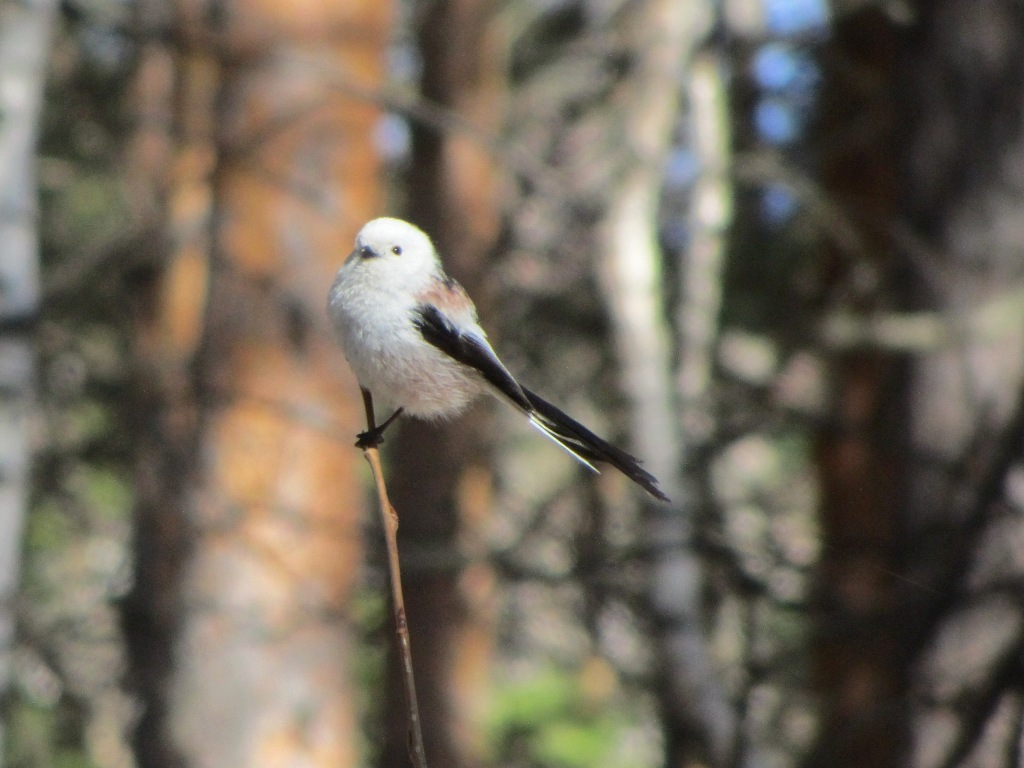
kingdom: Animalia
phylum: Chordata
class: Aves
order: Passeriformes
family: Aegithalidae
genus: Aegithalos
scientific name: Aegithalos caudatus
